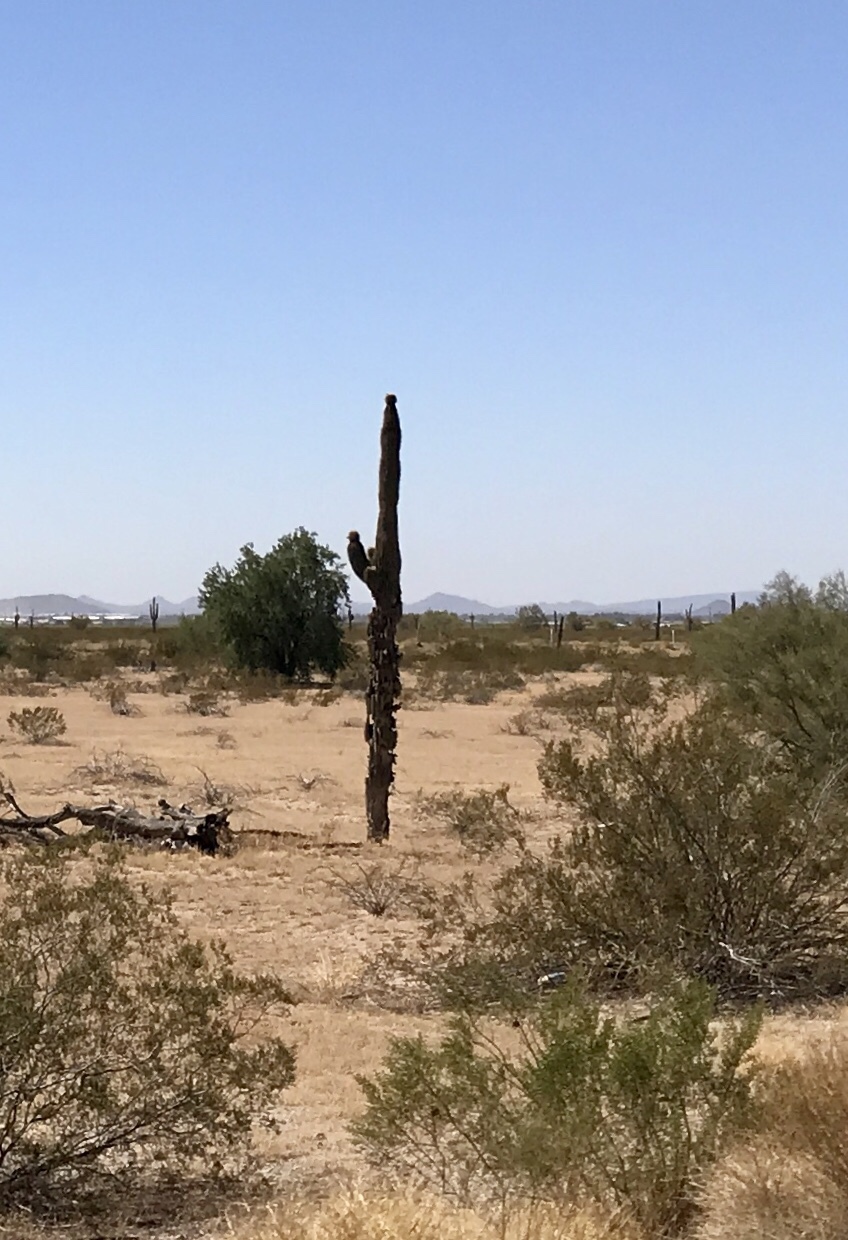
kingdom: Plantae
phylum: Tracheophyta
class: Magnoliopsida
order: Caryophyllales
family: Cactaceae
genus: Carnegiea
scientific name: Carnegiea gigantea
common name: Saguaro
